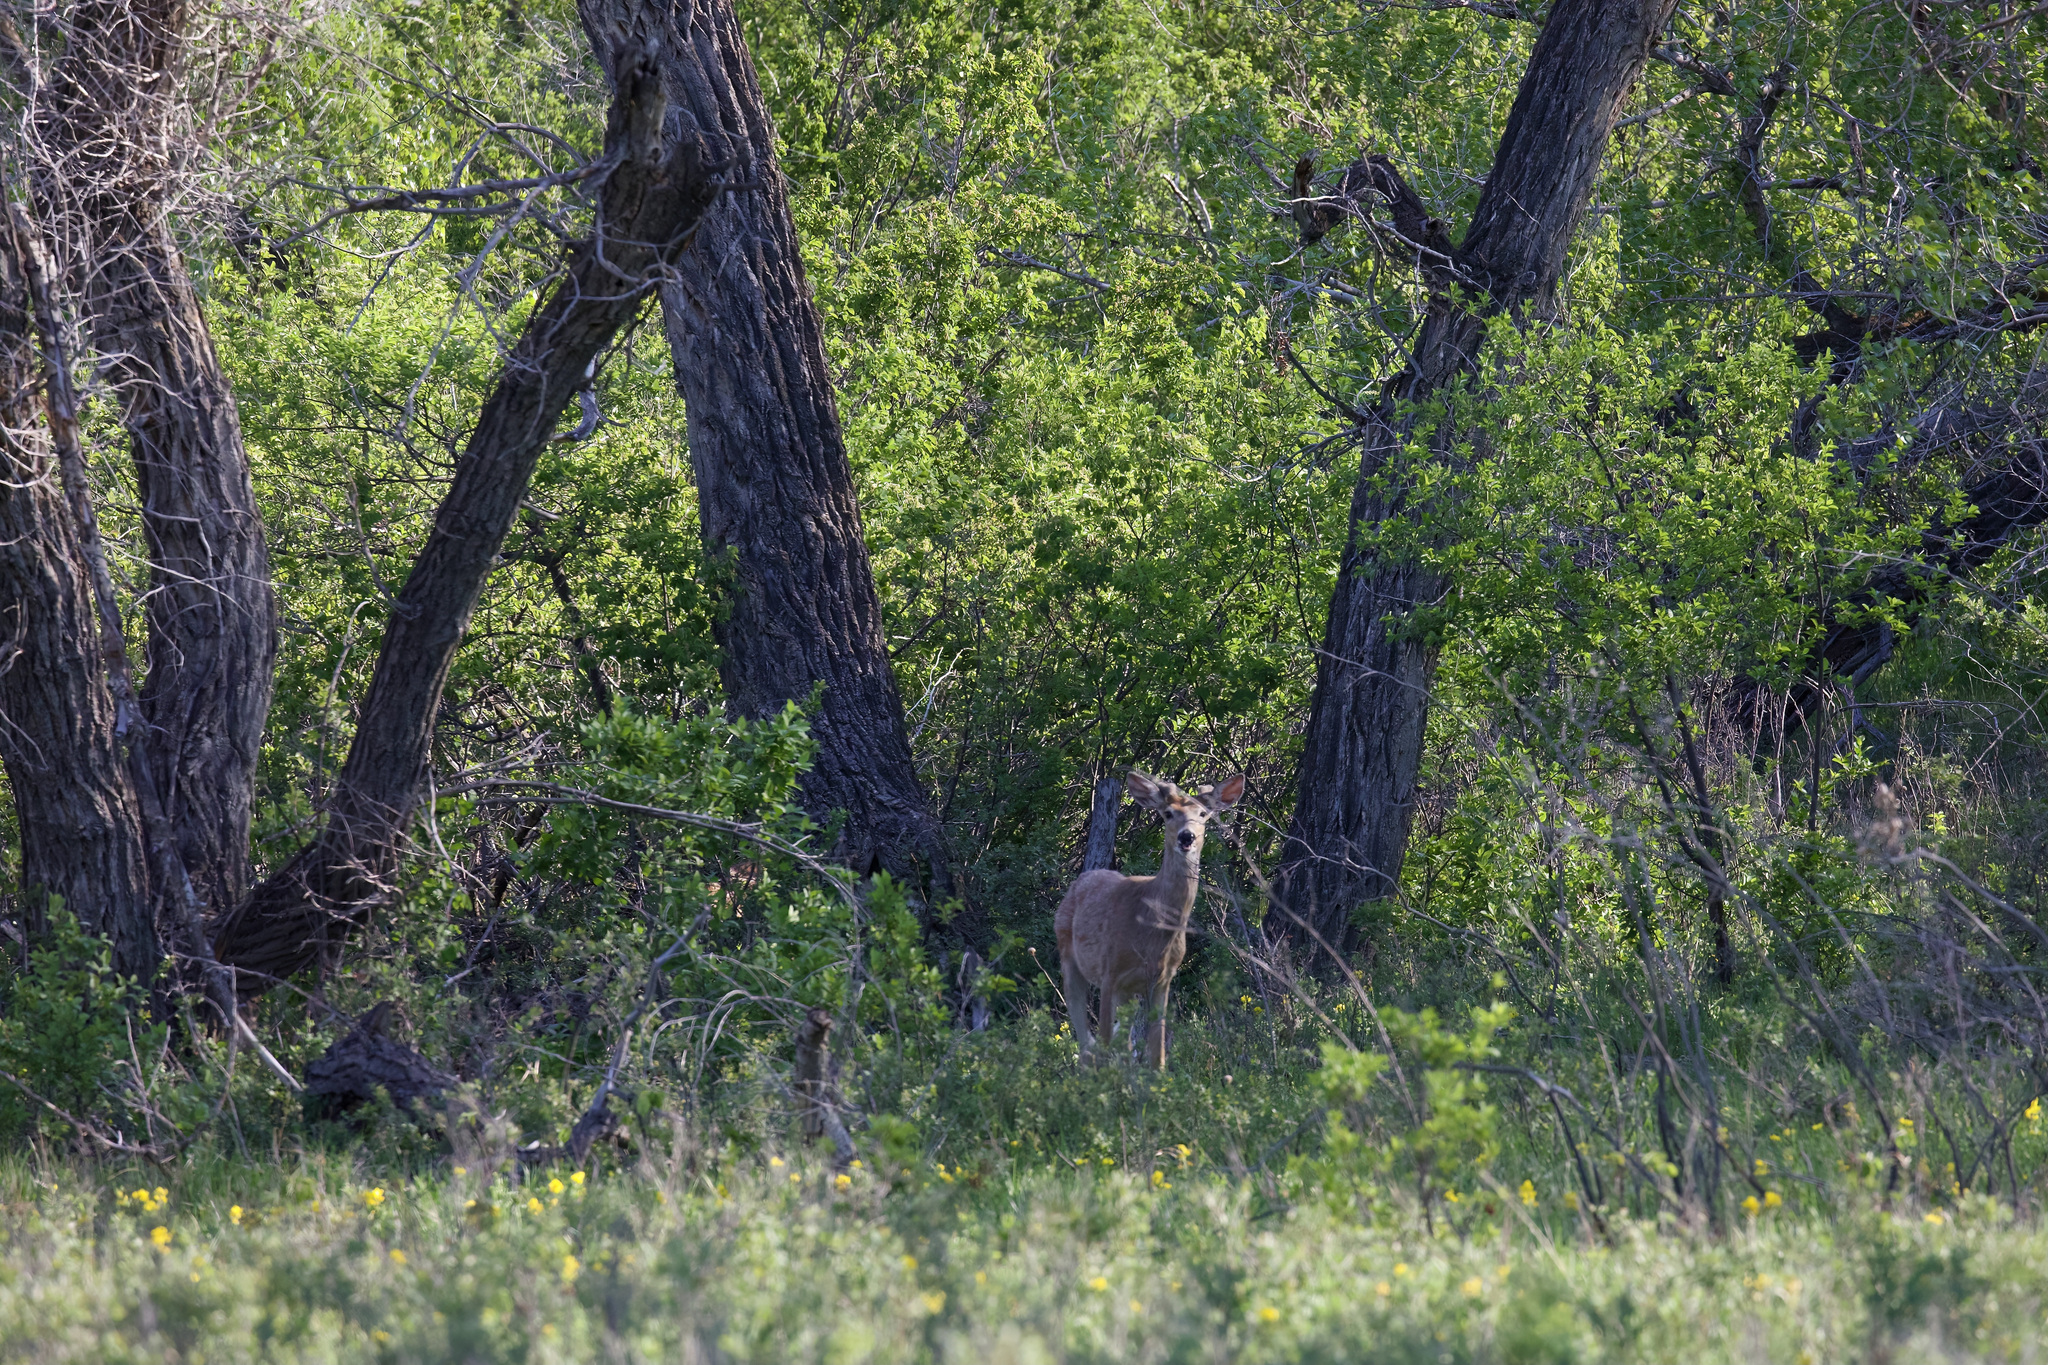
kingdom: Animalia
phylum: Chordata
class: Mammalia
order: Artiodactyla
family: Cervidae
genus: Odocoileus
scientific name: Odocoileus virginianus
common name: White-tailed deer
